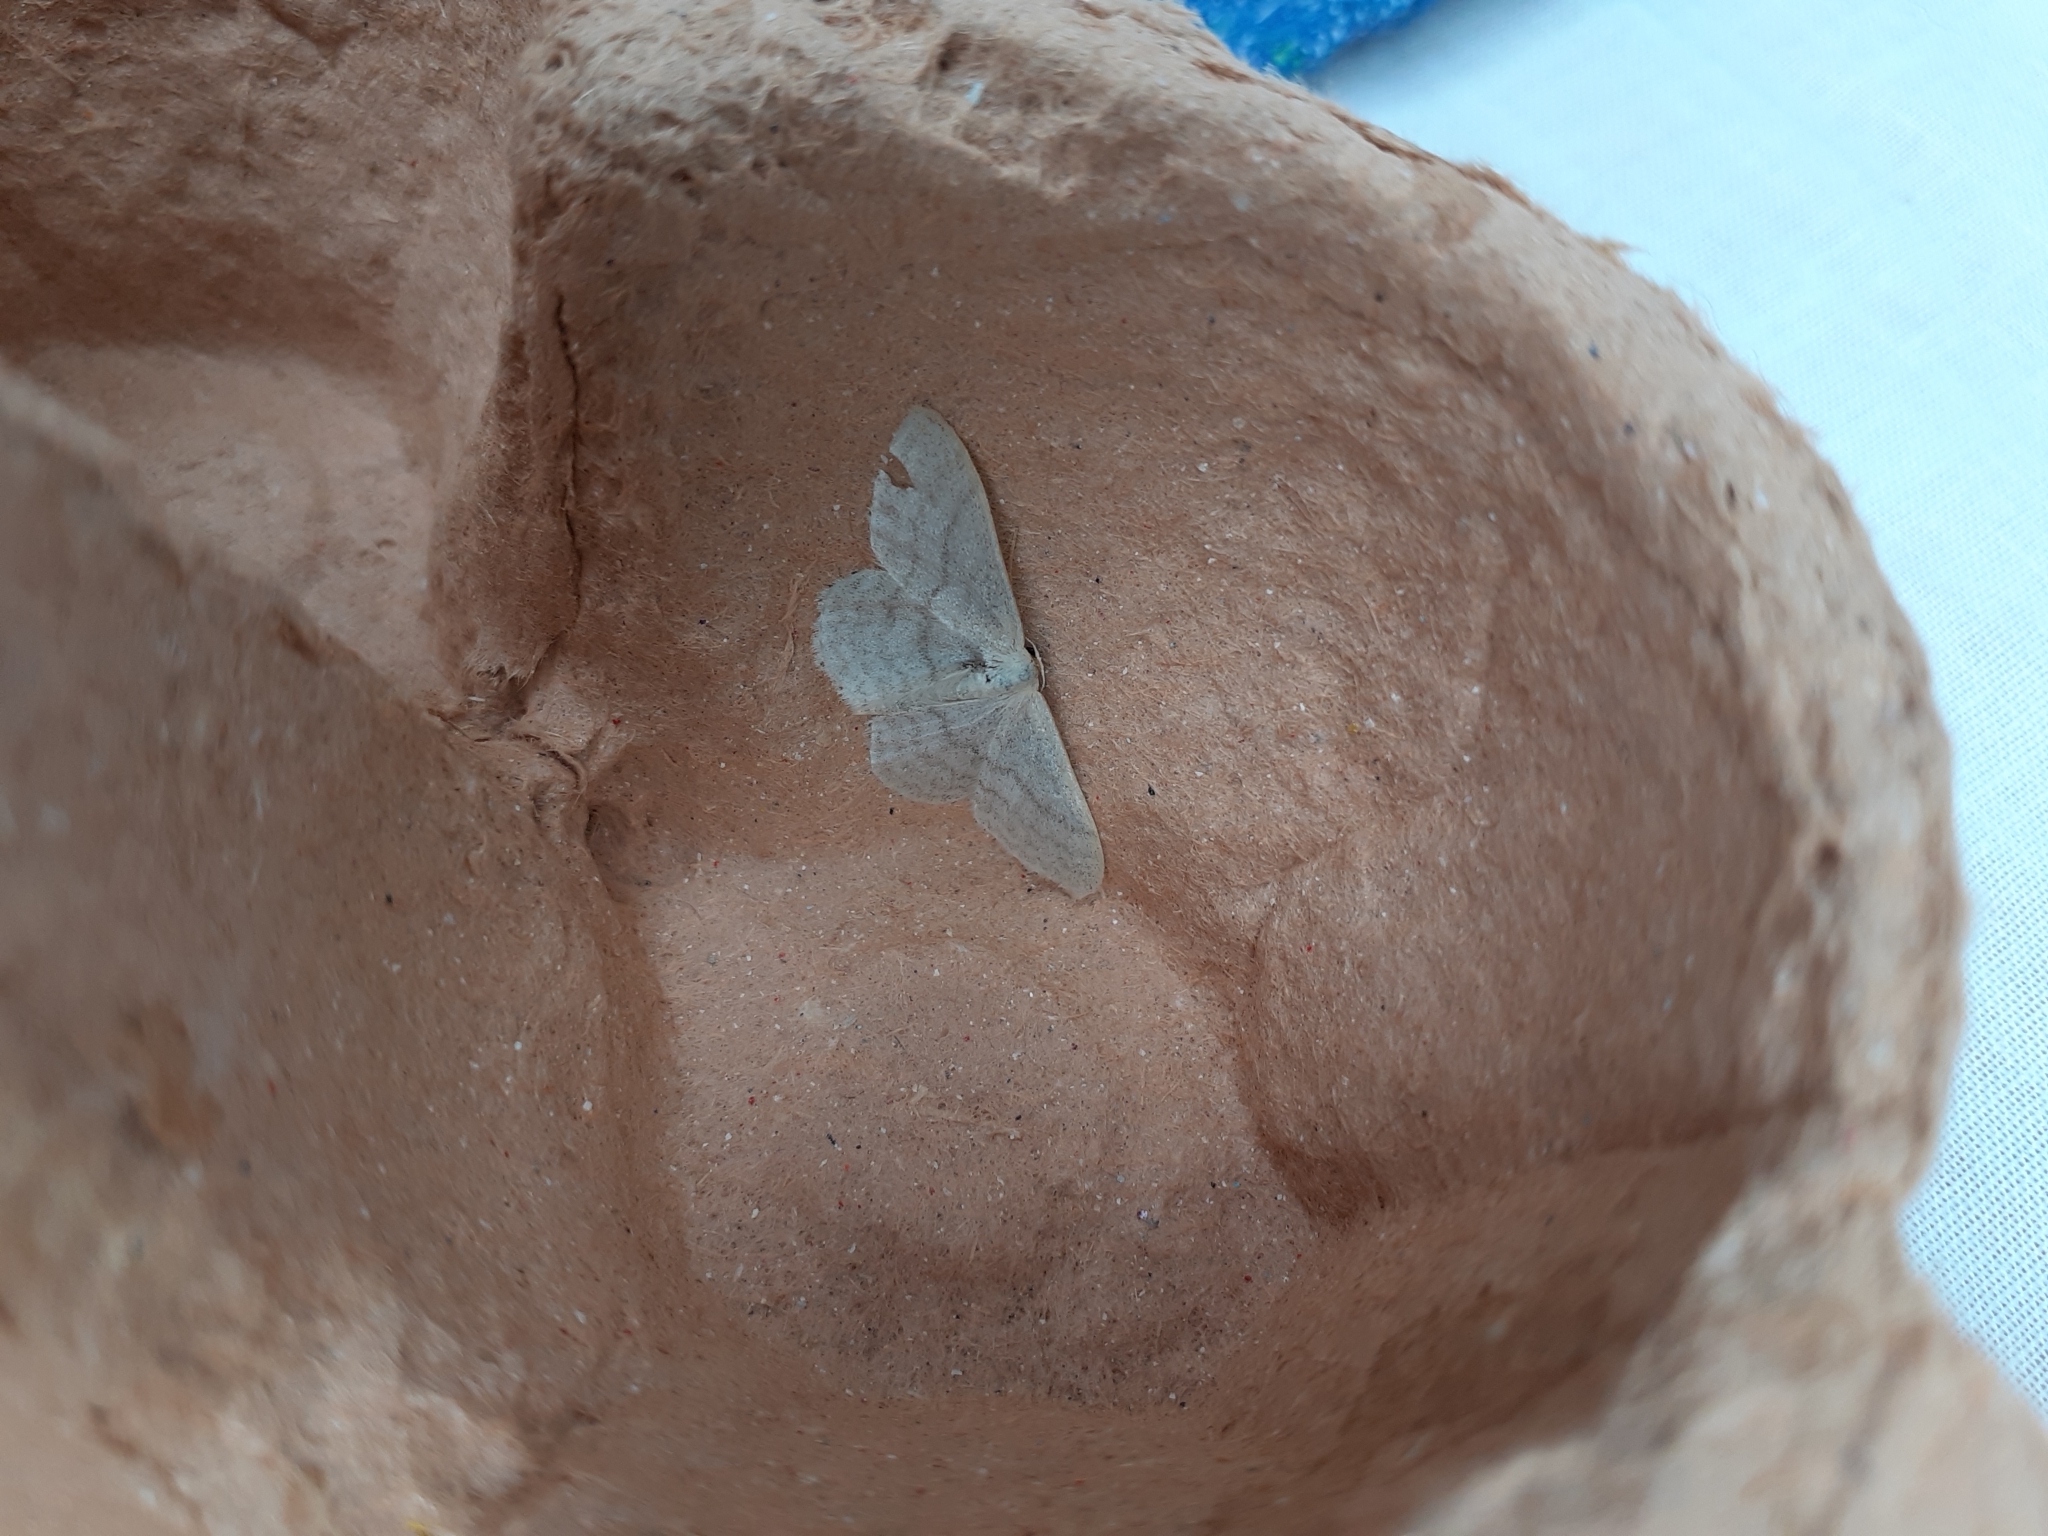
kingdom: Animalia
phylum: Arthropoda
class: Insecta
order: Lepidoptera
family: Geometridae
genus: Idaea
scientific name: Idaea subsericeata
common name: Satin wave
